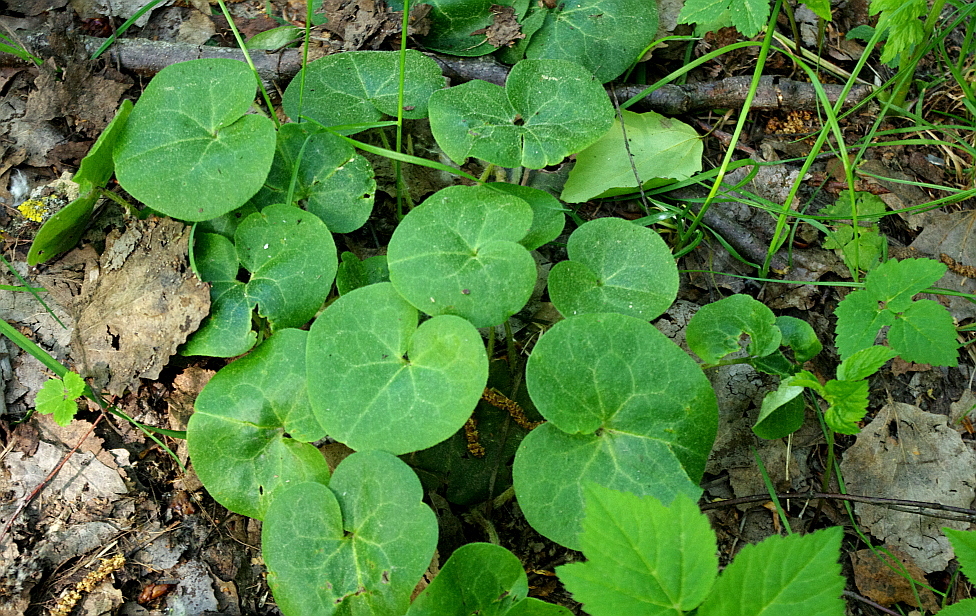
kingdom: Plantae
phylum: Tracheophyta
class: Magnoliopsida
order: Piperales
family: Aristolochiaceae
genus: Asarum
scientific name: Asarum europaeum
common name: Asarabacca
